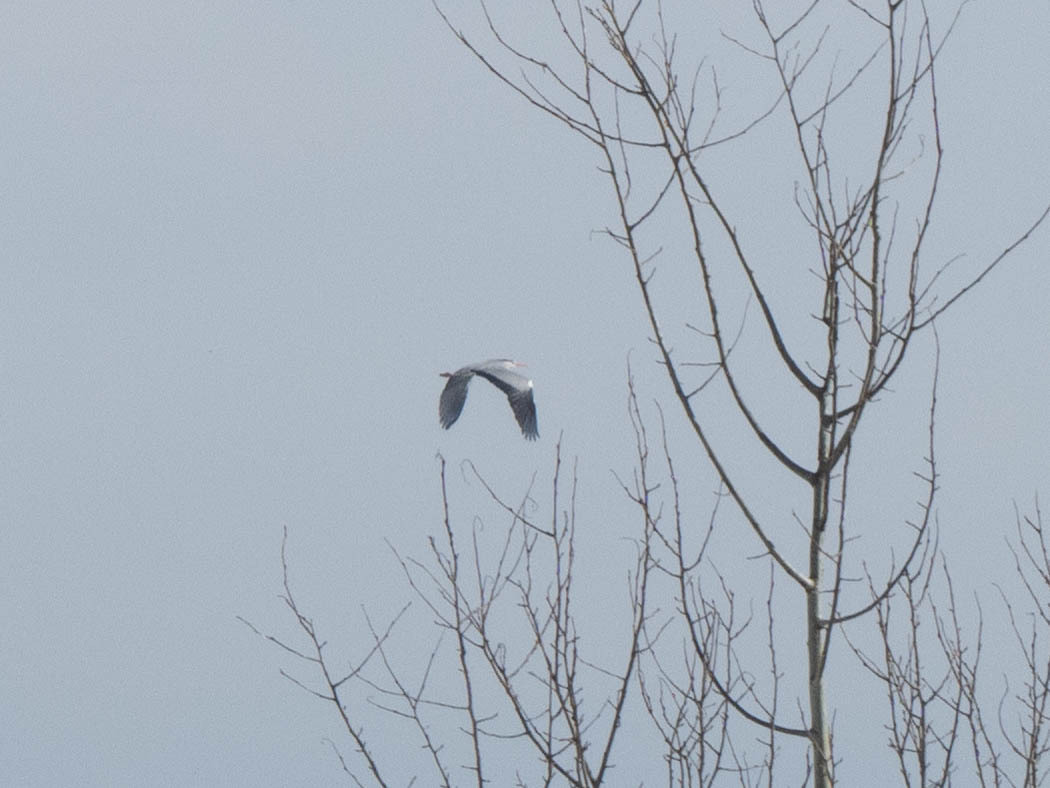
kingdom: Animalia
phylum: Chordata
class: Aves
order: Pelecaniformes
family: Ardeidae
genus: Ardea
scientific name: Ardea cinerea
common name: Grey heron
